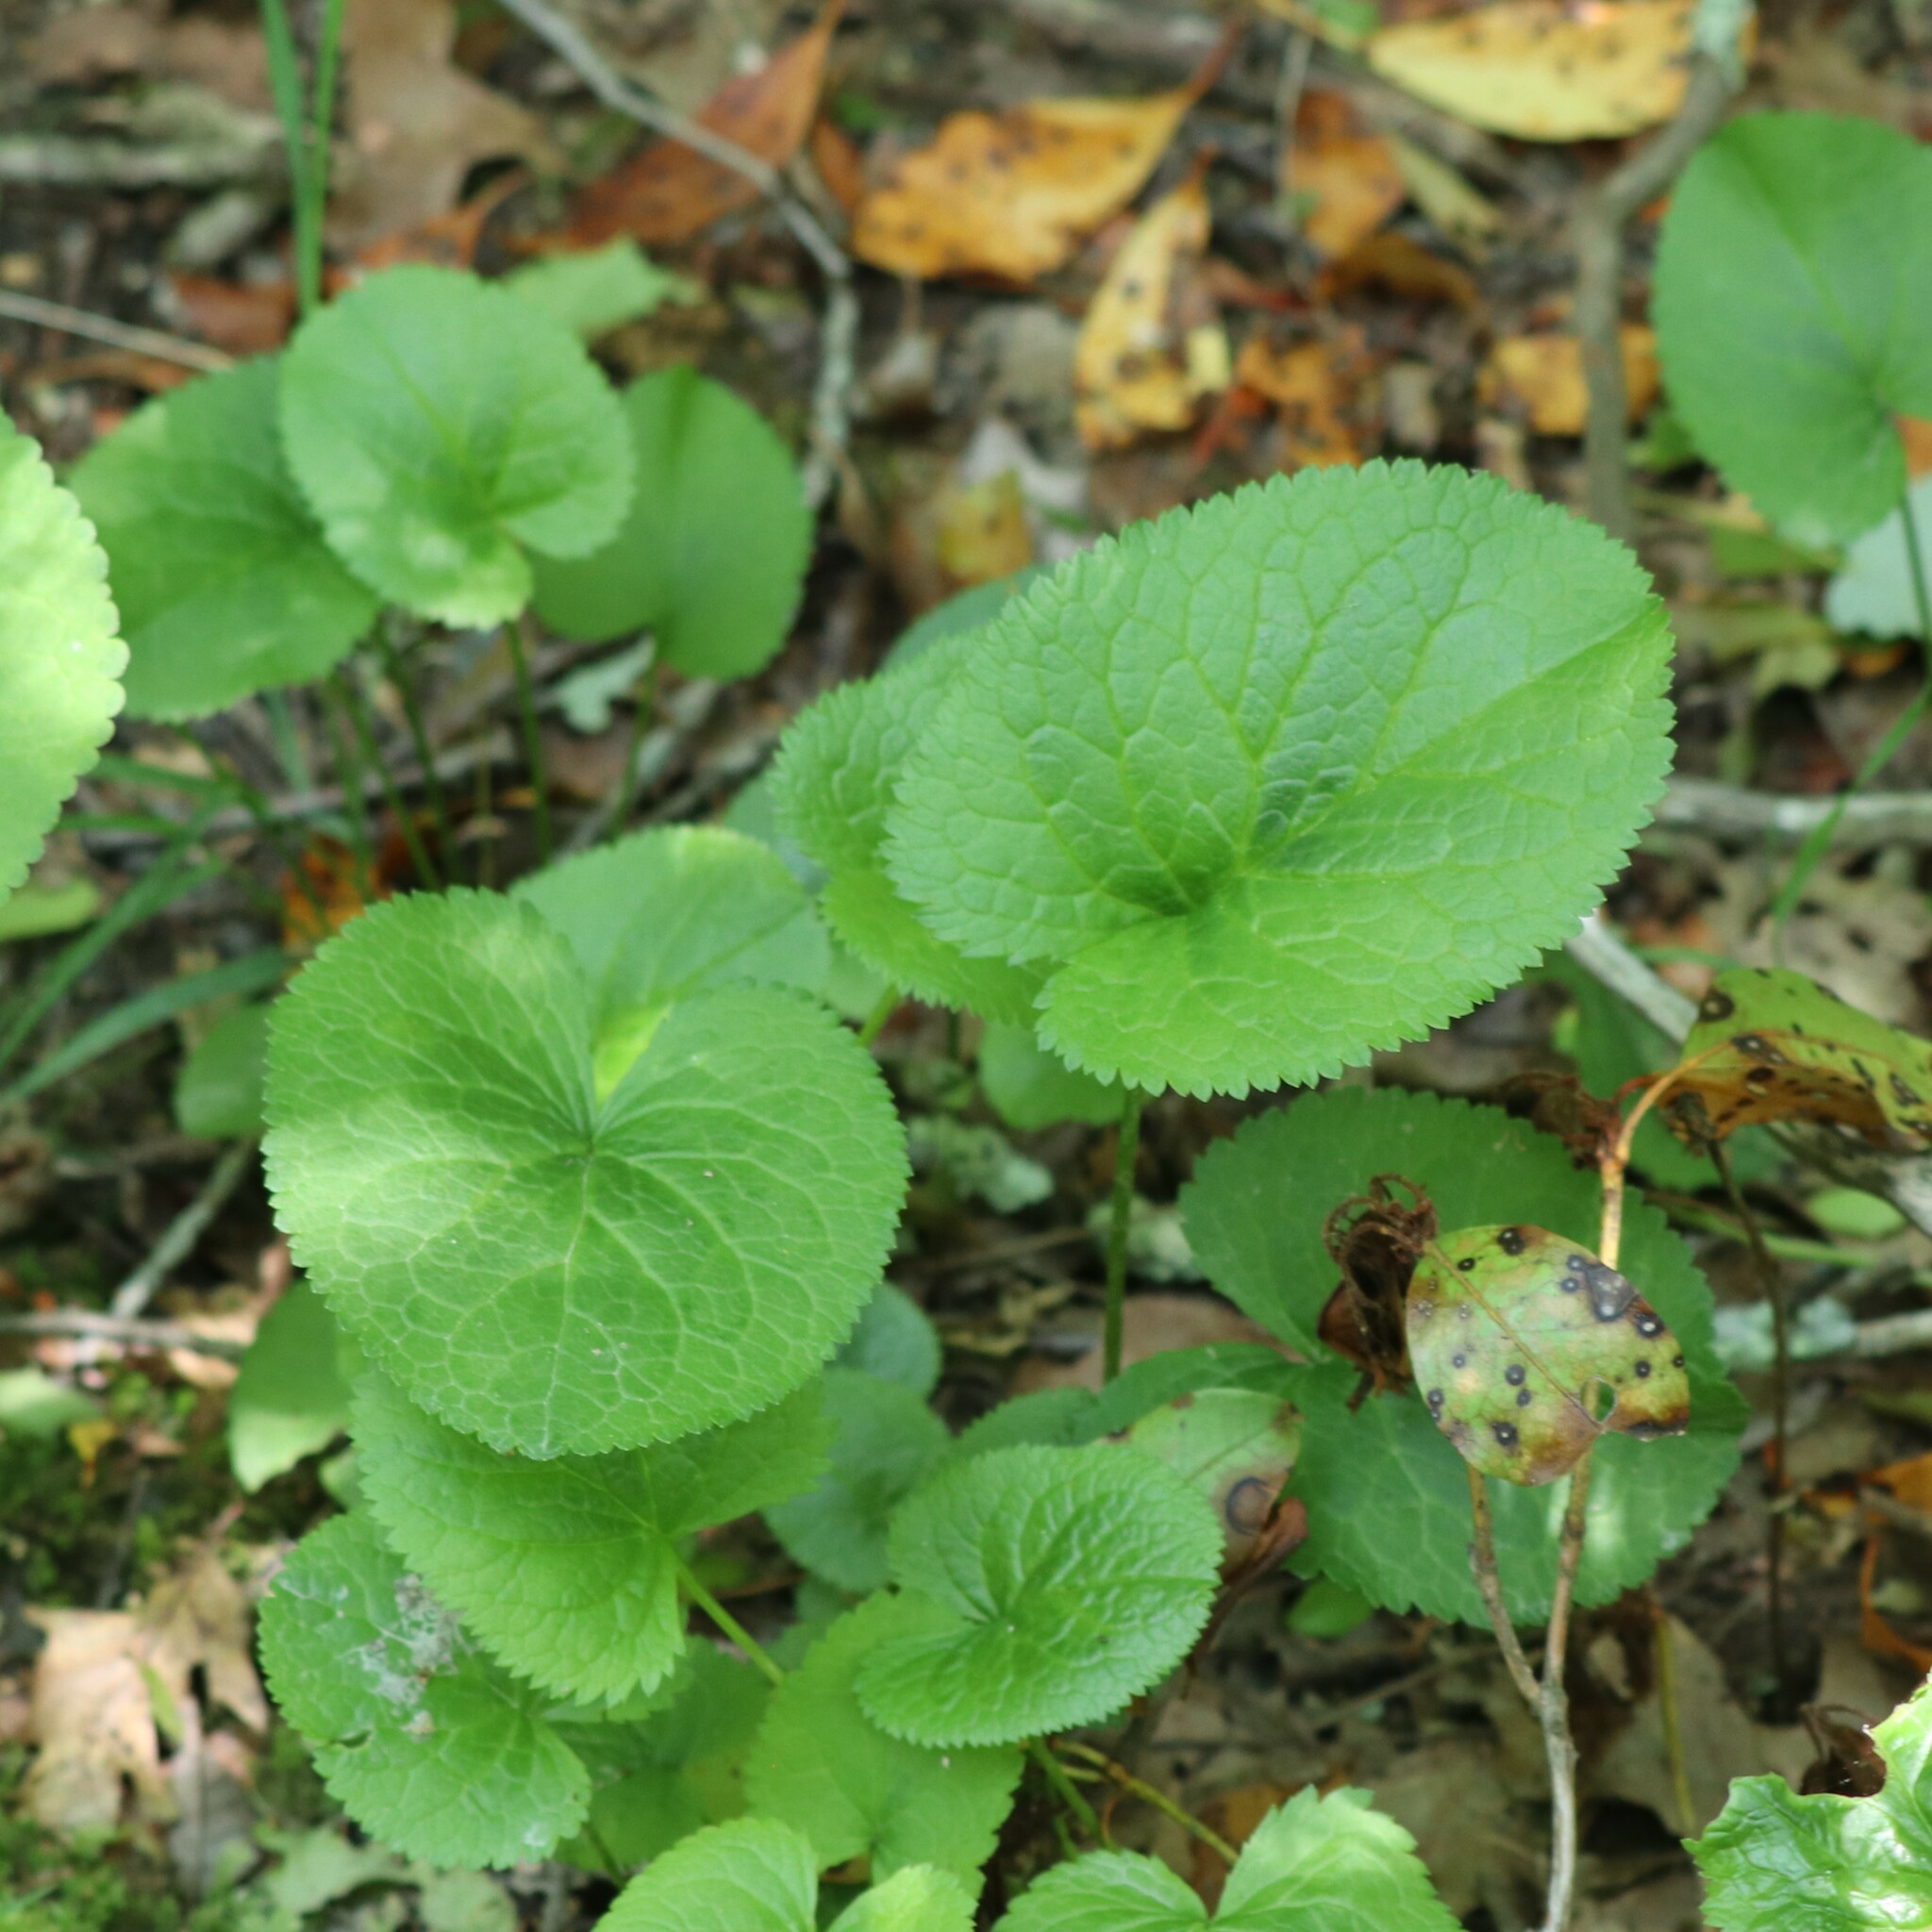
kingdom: Plantae
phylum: Tracheophyta
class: Magnoliopsida
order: Asterales
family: Asteraceae
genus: Packera
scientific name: Packera aurea
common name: Golden groundsel
